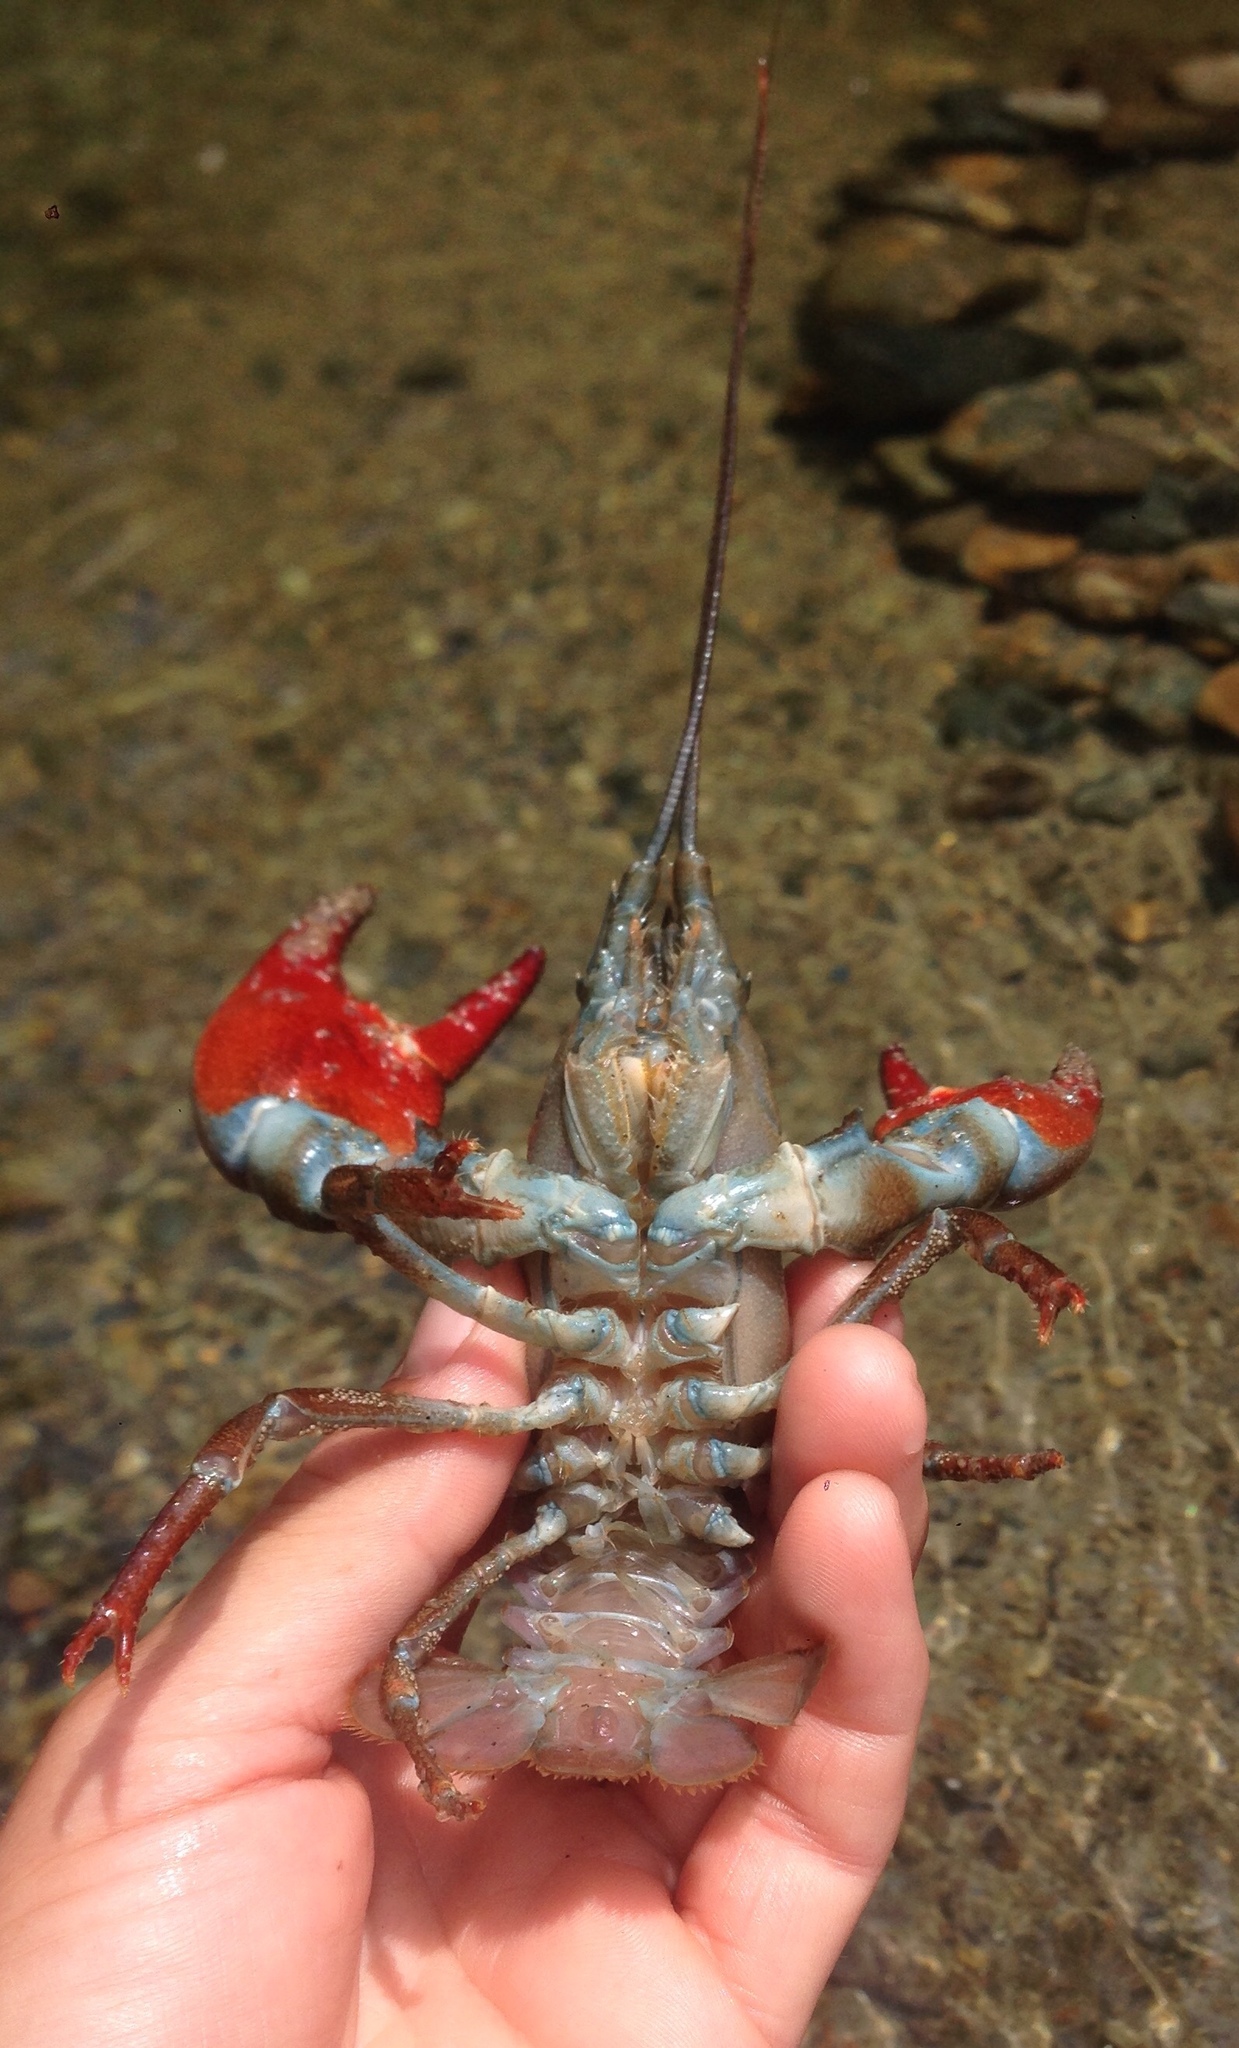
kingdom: Animalia
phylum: Arthropoda
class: Malacostraca
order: Decapoda
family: Astacidae
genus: Pacifastacus
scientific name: Pacifastacus leniusculus
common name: Signal crayfish
